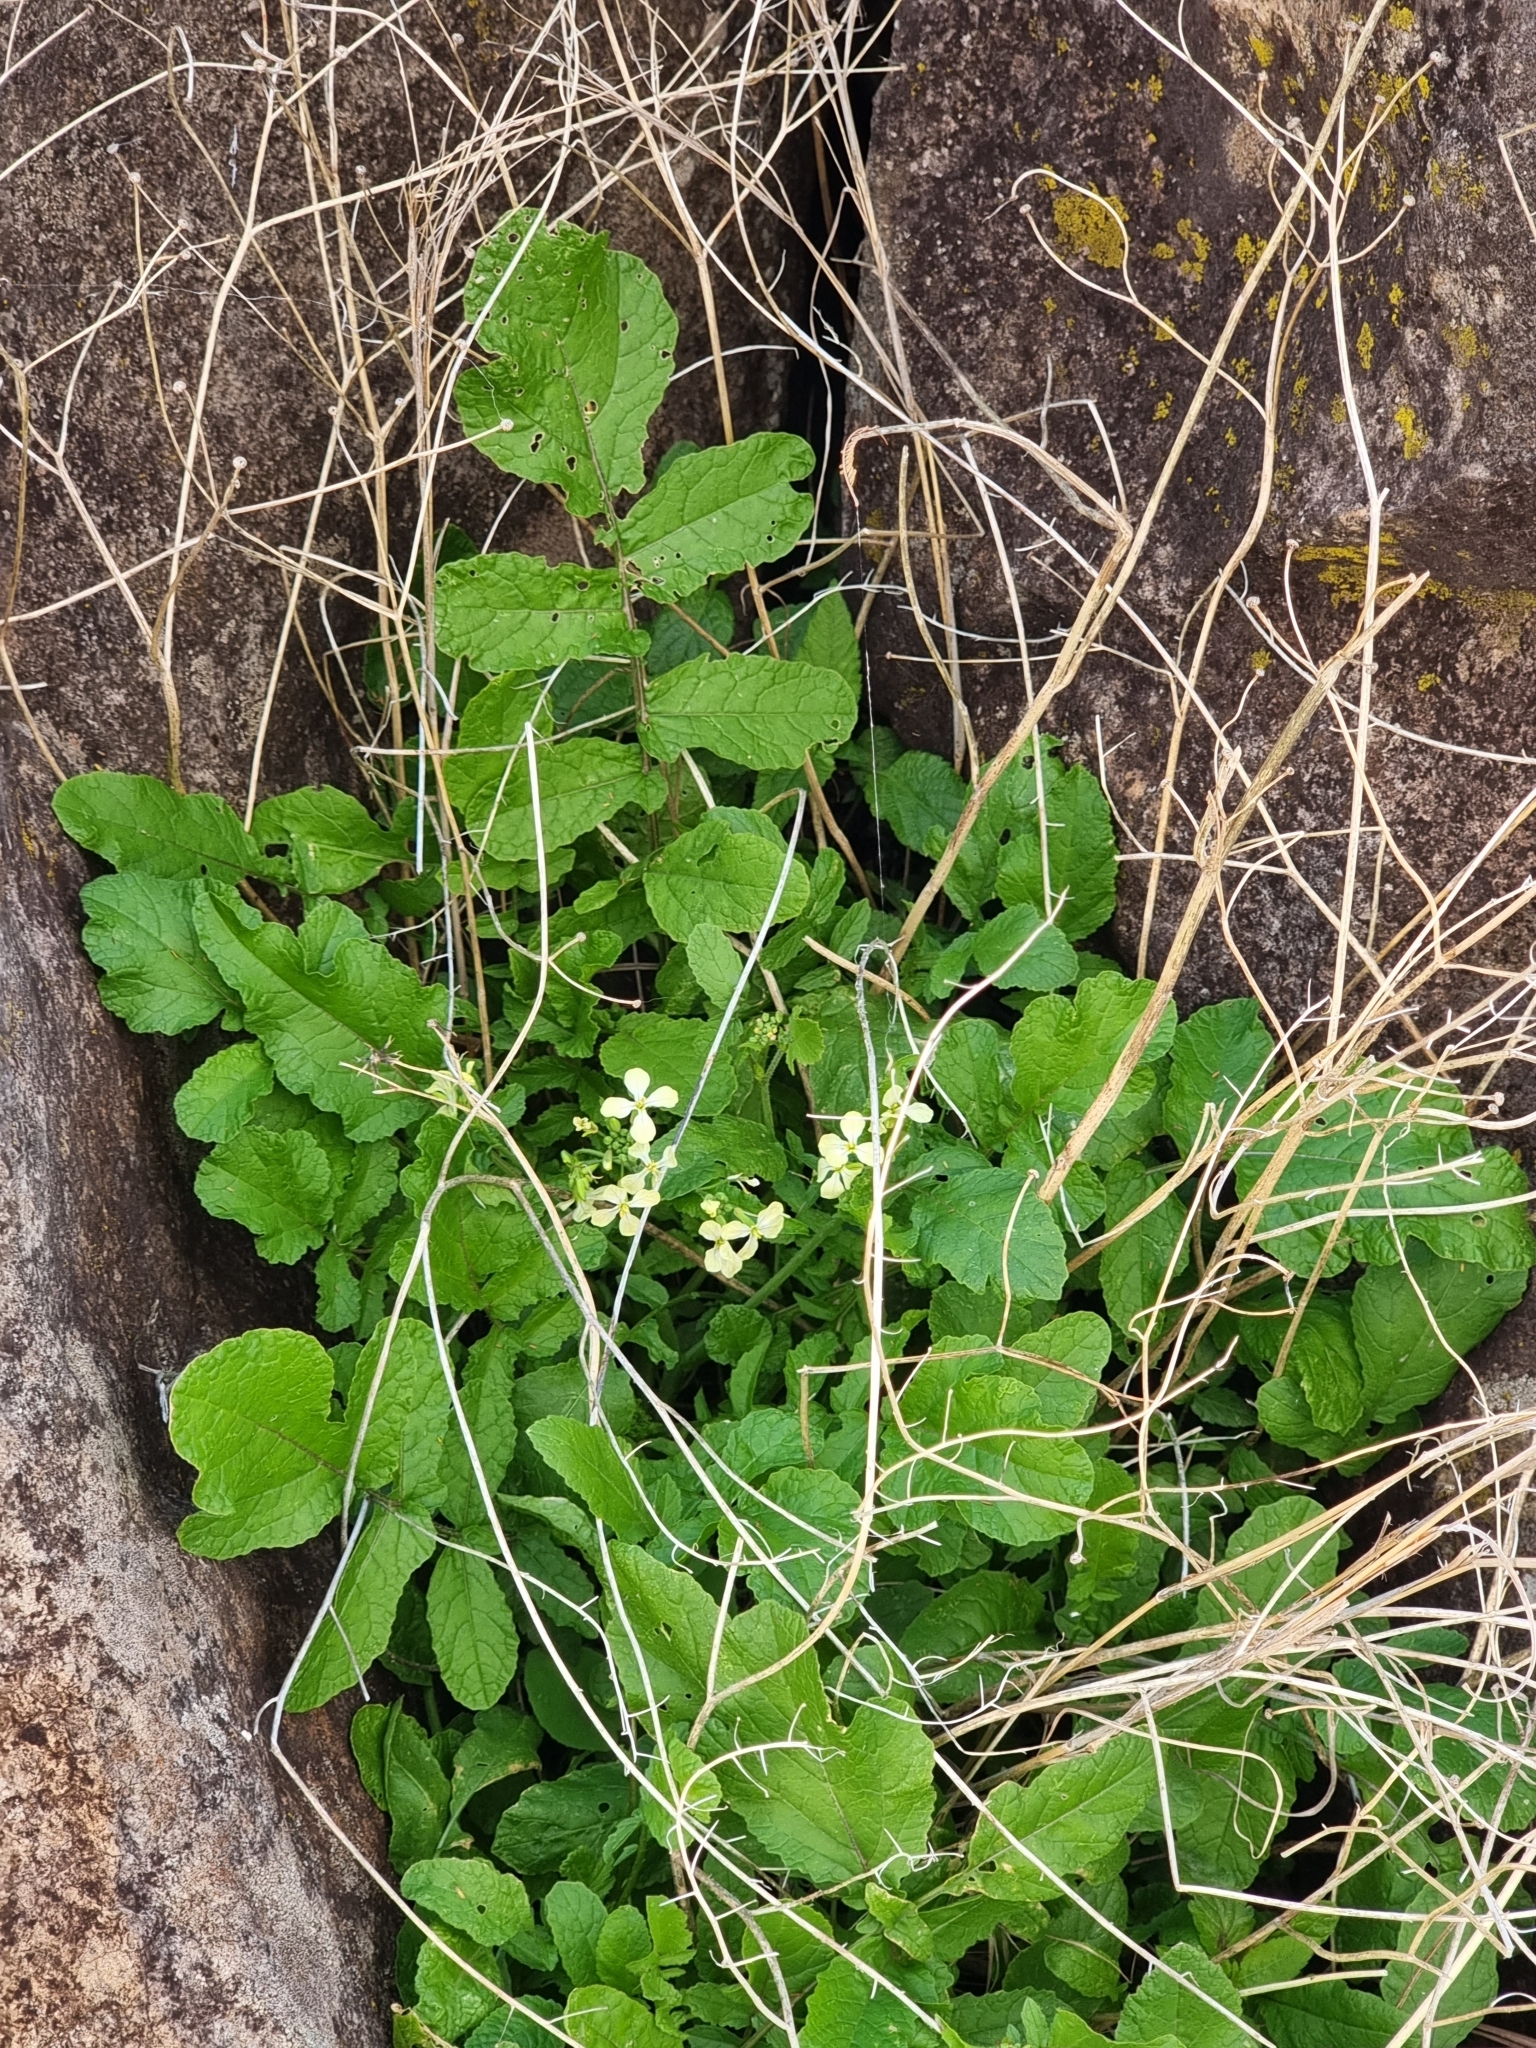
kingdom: Plantae
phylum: Tracheophyta
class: Magnoliopsida
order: Brassicales
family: Brassicaceae
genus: Raphanus
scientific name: Raphanus raphanistrum
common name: Wild radish
